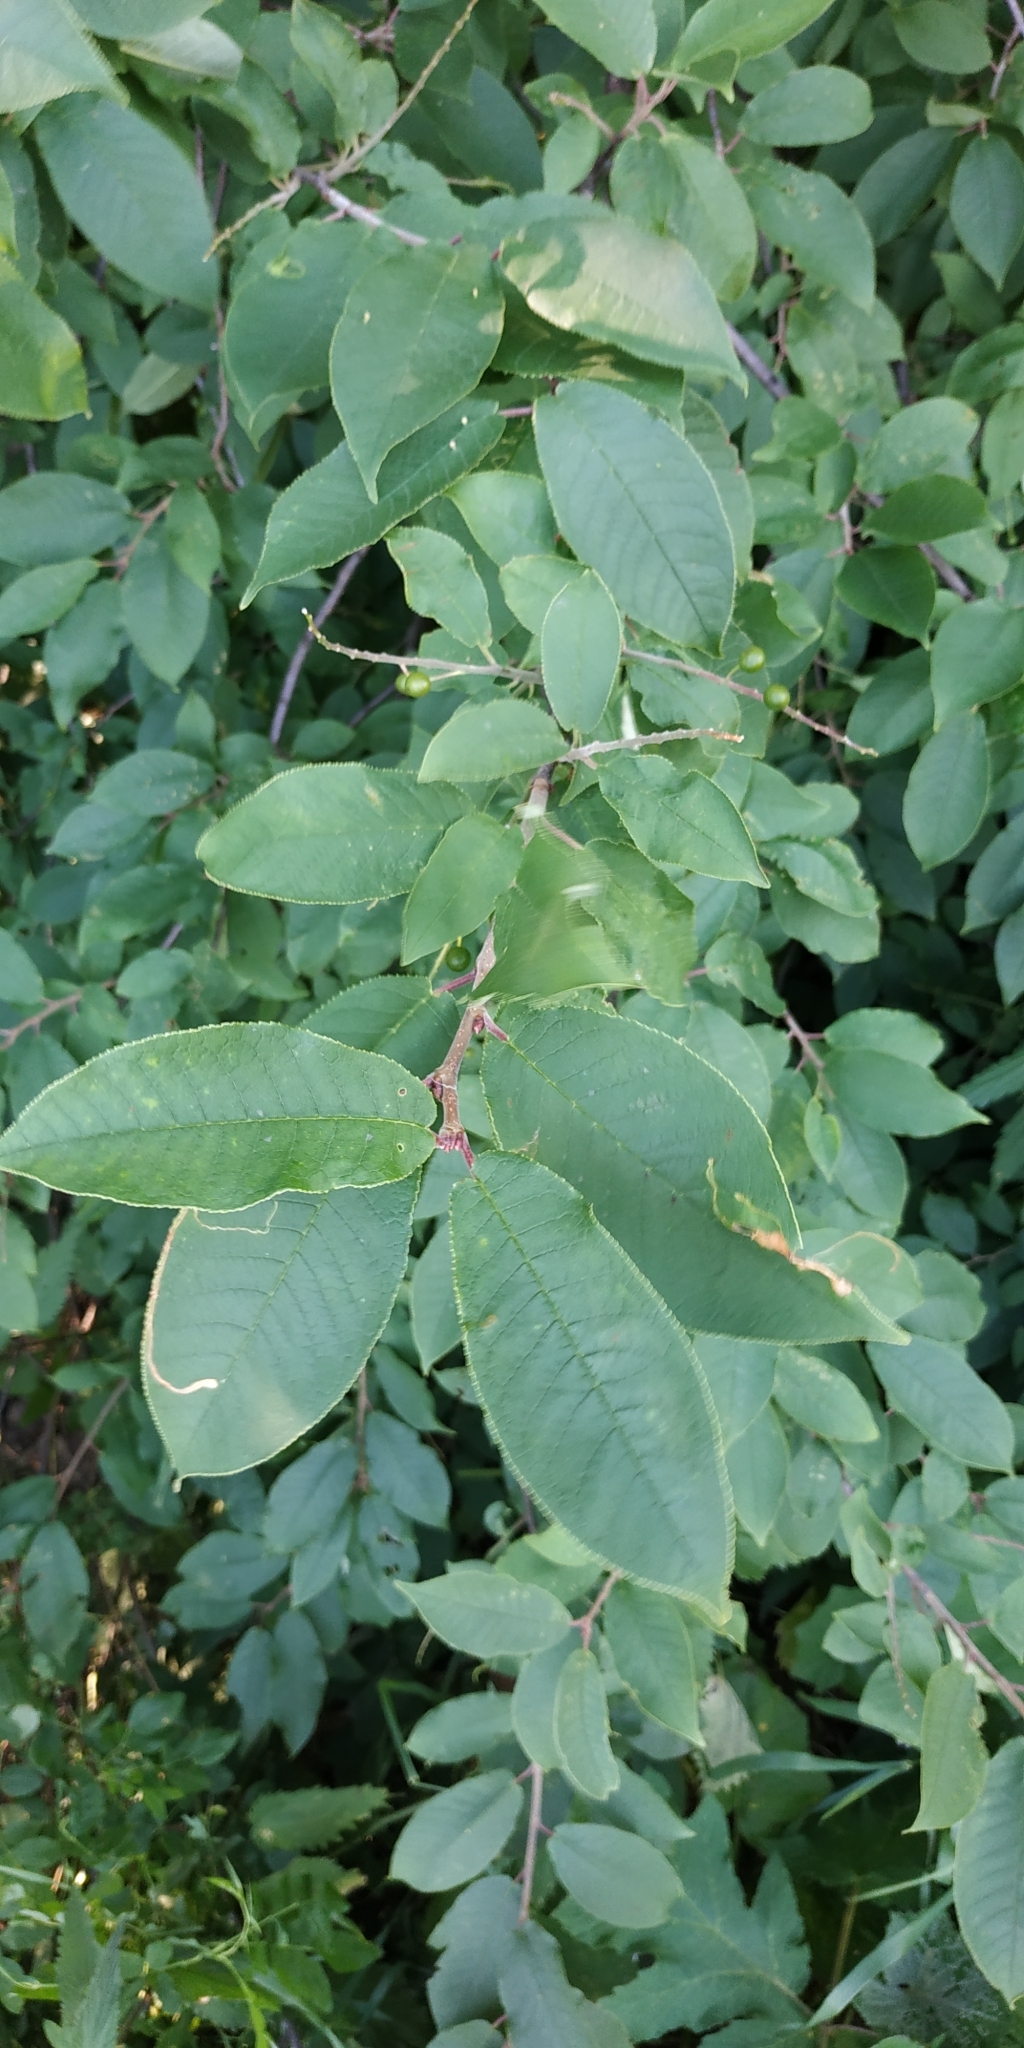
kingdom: Plantae
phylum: Tracheophyta
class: Magnoliopsida
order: Rosales
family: Rosaceae
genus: Prunus
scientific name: Prunus padus
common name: Bird cherry
